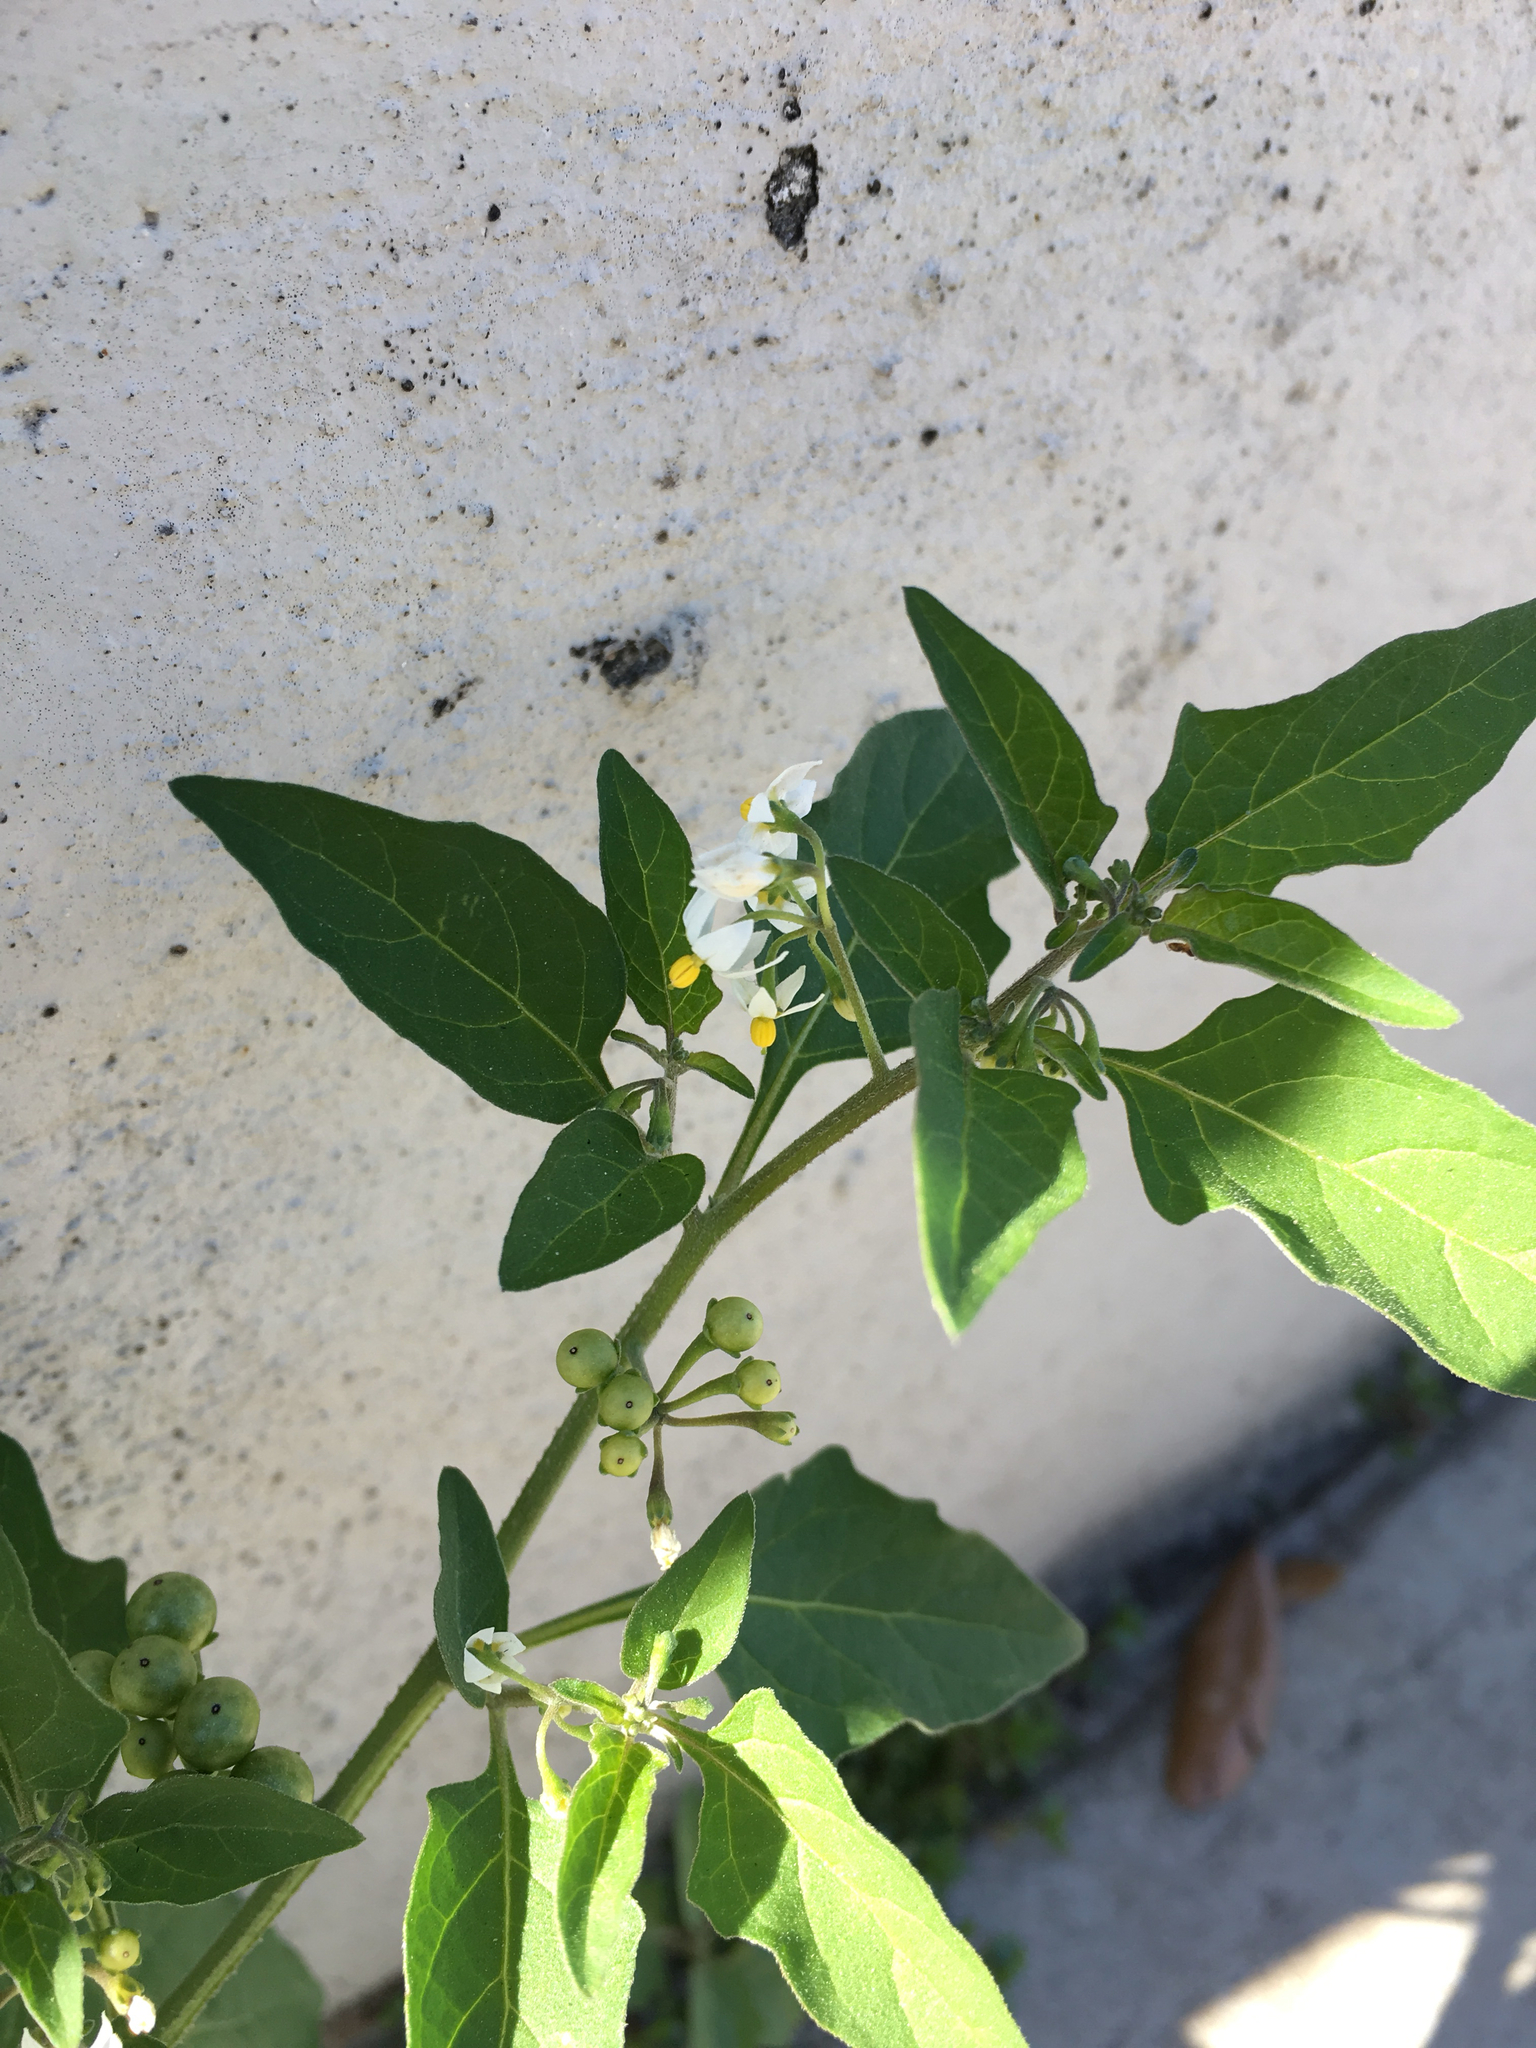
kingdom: Plantae
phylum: Tracheophyta
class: Magnoliopsida
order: Solanales
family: Solanaceae
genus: Solanum
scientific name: Solanum americanum
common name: American black nightshade
